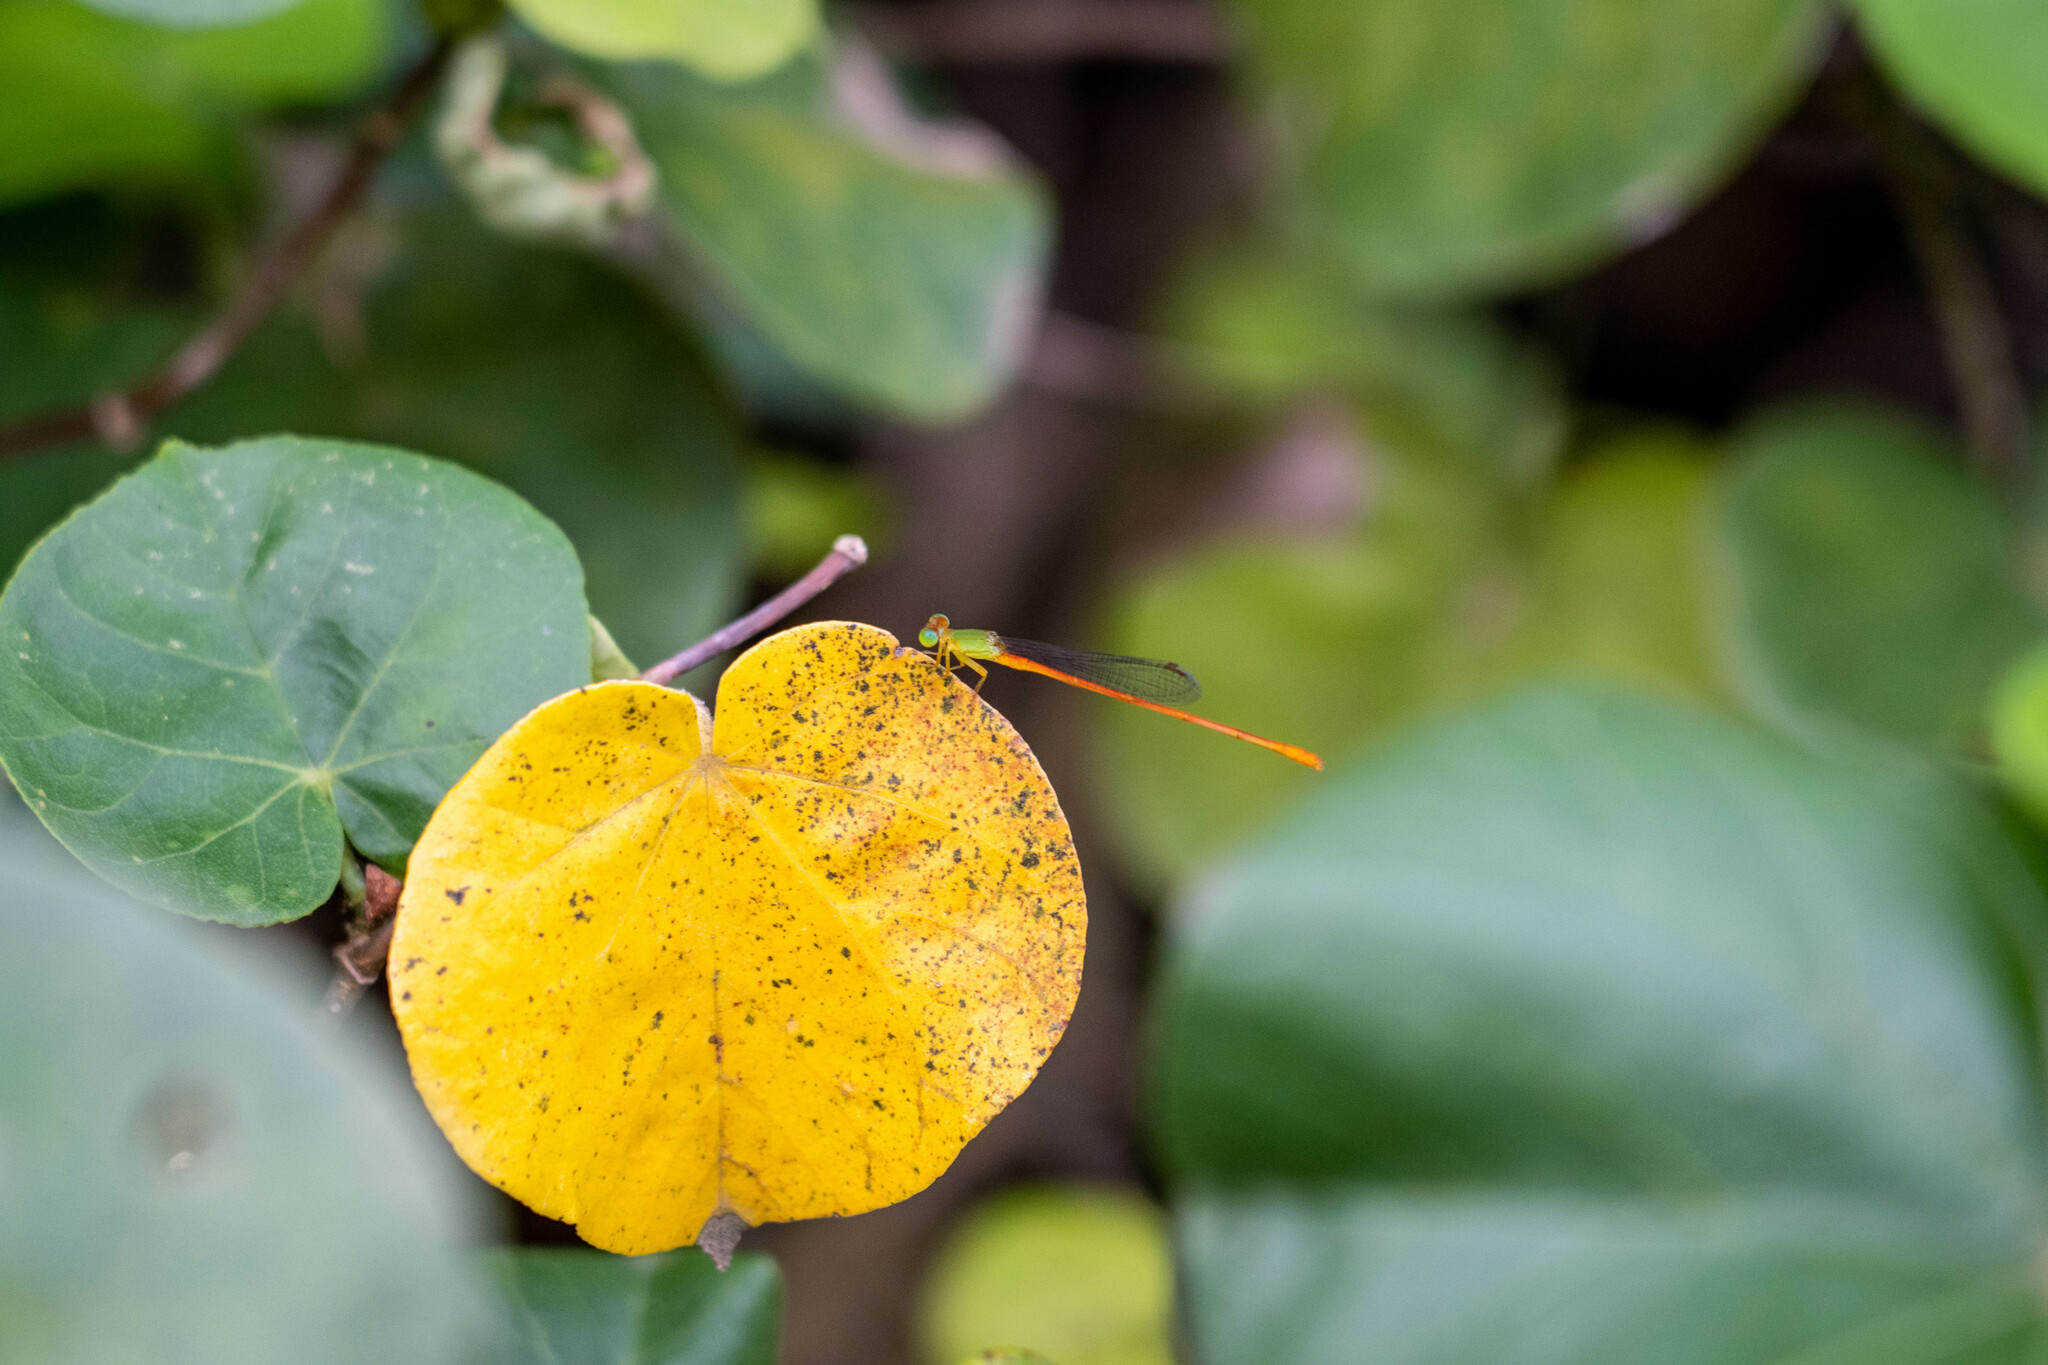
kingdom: Animalia
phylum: Arthropoda
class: Insecta
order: Odonata
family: Coenagrionidae
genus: Ceriagrion
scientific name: Ceriagrion auranticum
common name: Orange-tailed sprite
